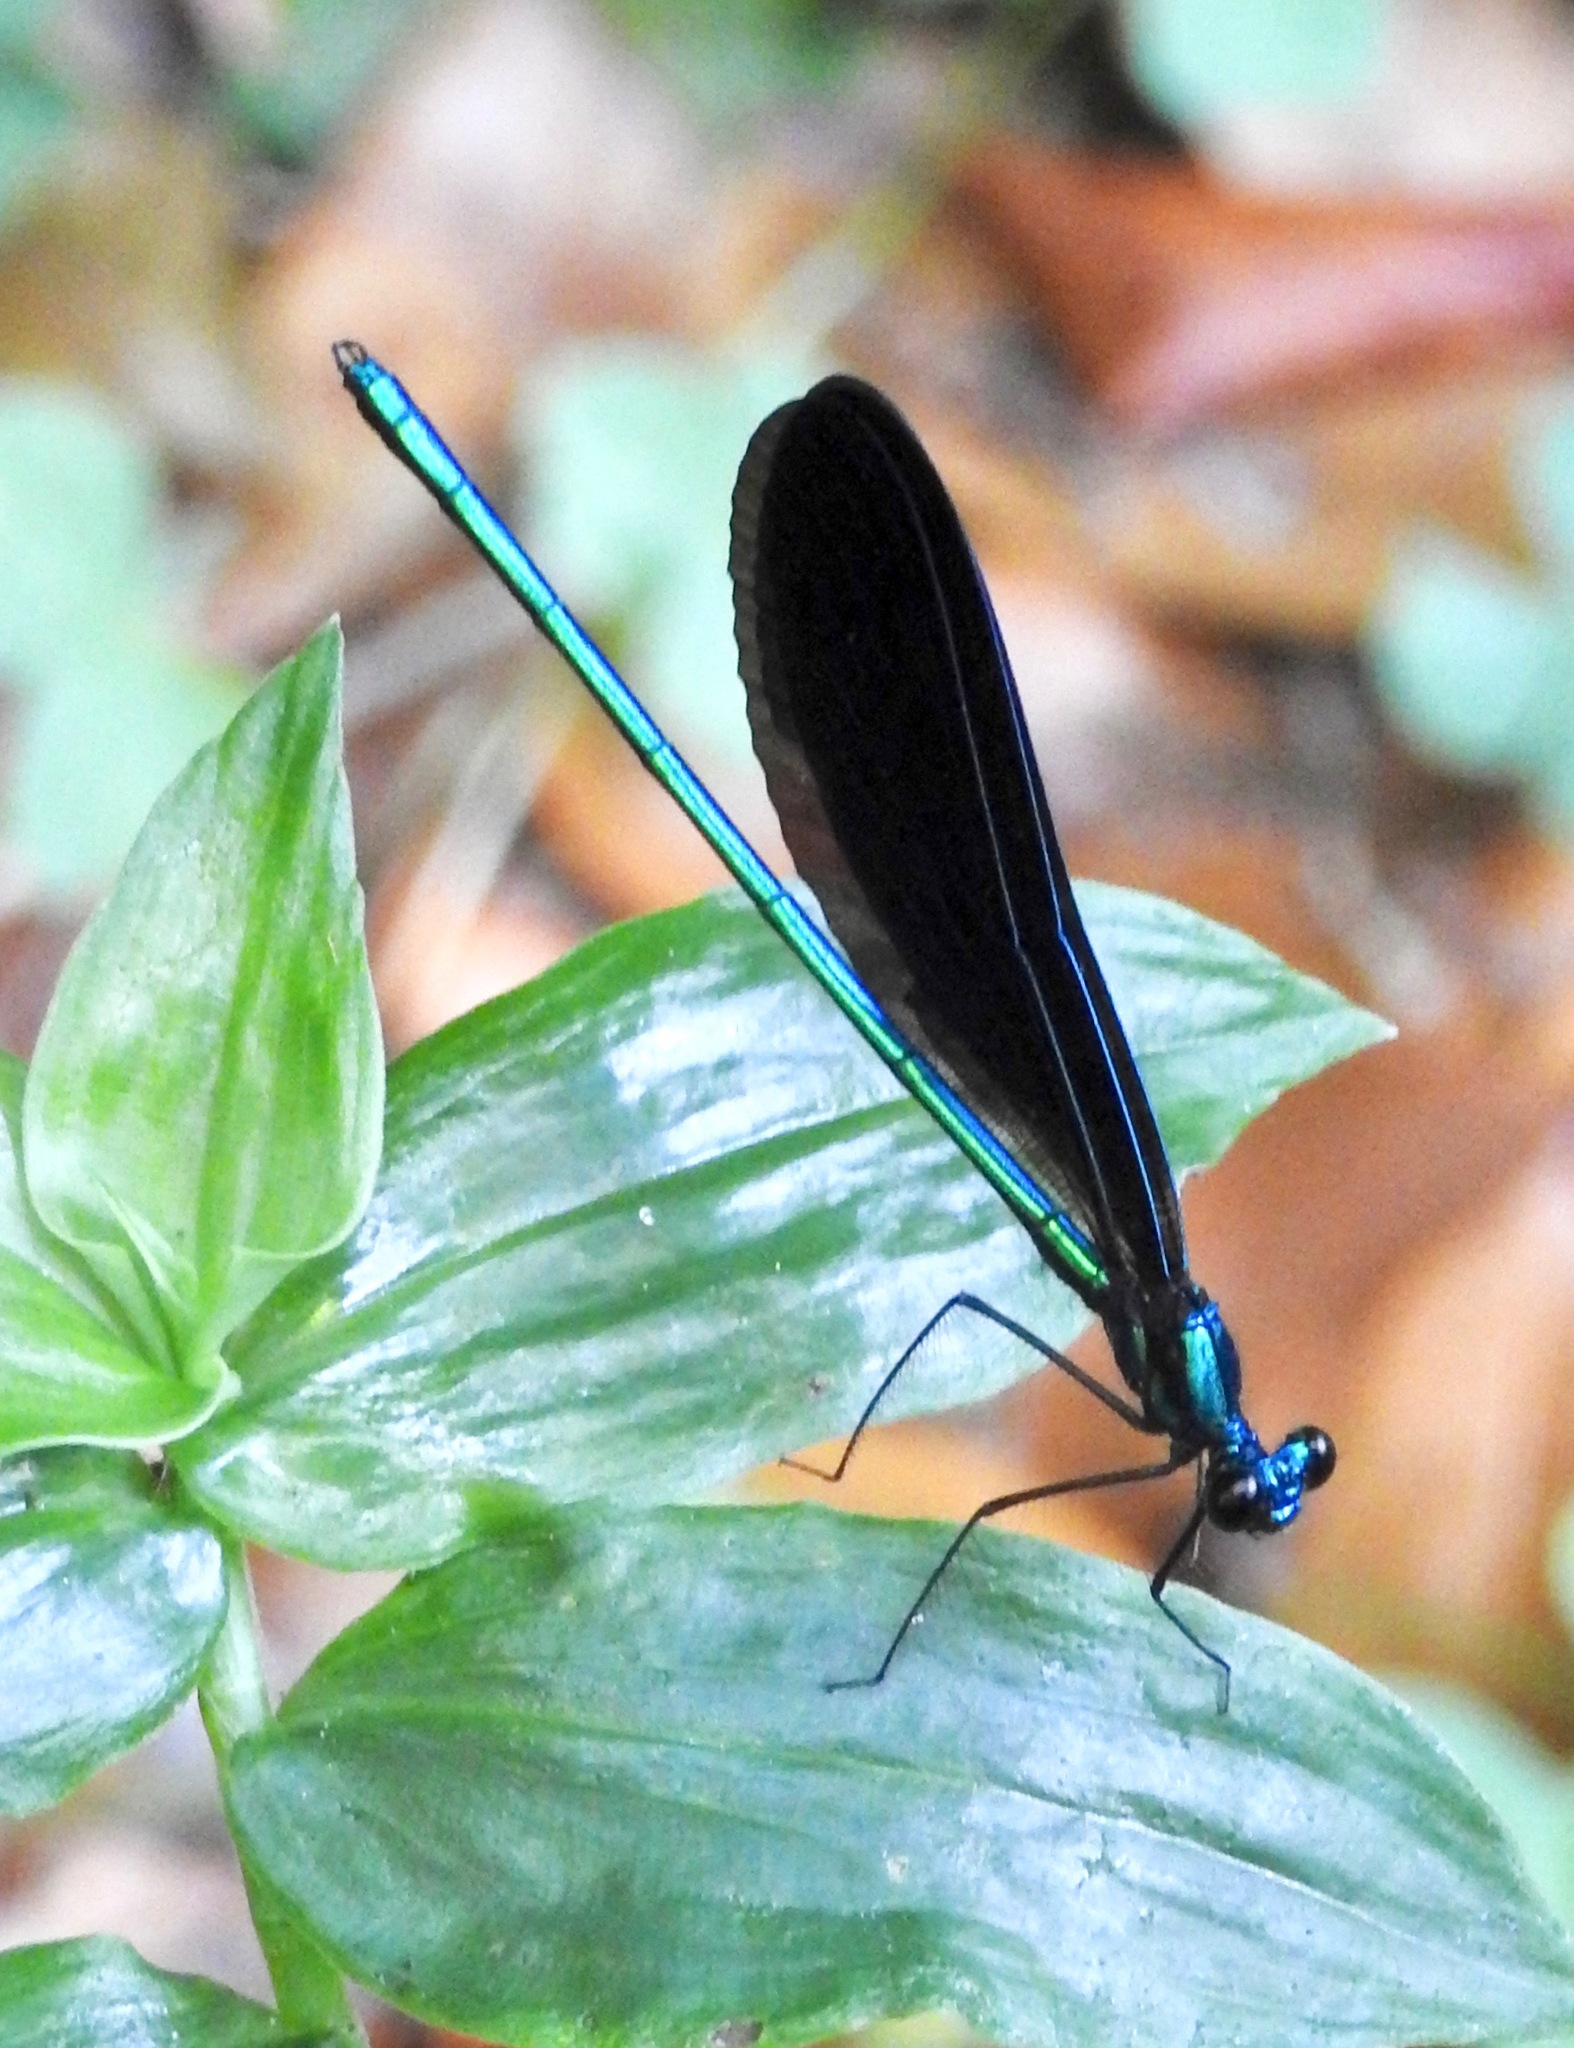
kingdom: Animalia
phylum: Arthropoda
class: Insecta
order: Odonata
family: Calopterygidae
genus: Calopteryx
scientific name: Calopteryx maculata
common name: Ebony jewelwing
